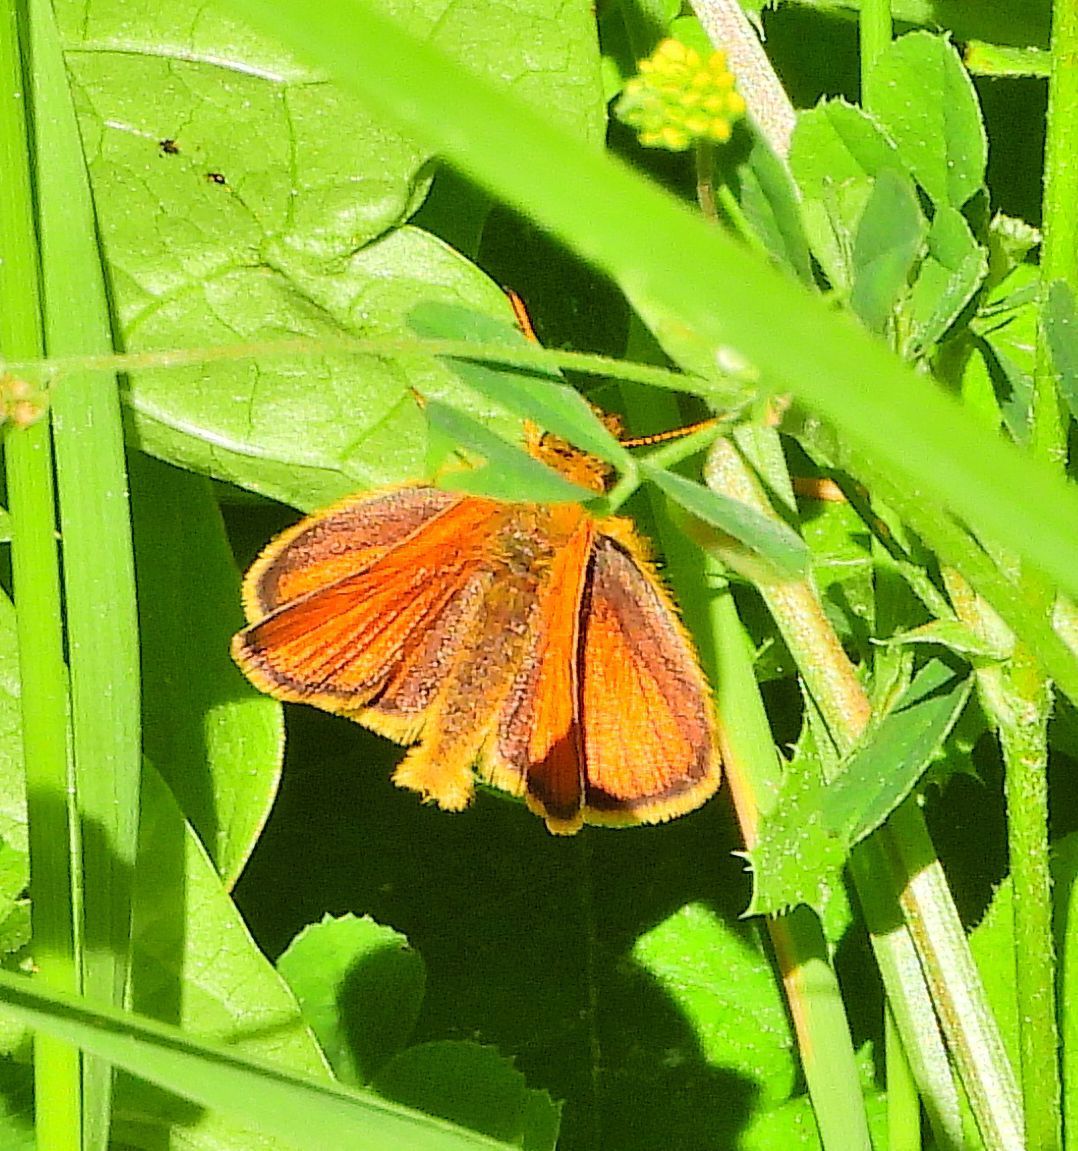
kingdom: Animalia
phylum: Arthropoda
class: Insecta
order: Lepidoptera
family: Hesperiidae
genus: Thymelicus
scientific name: Thymelicus lineola
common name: Essex skipper
